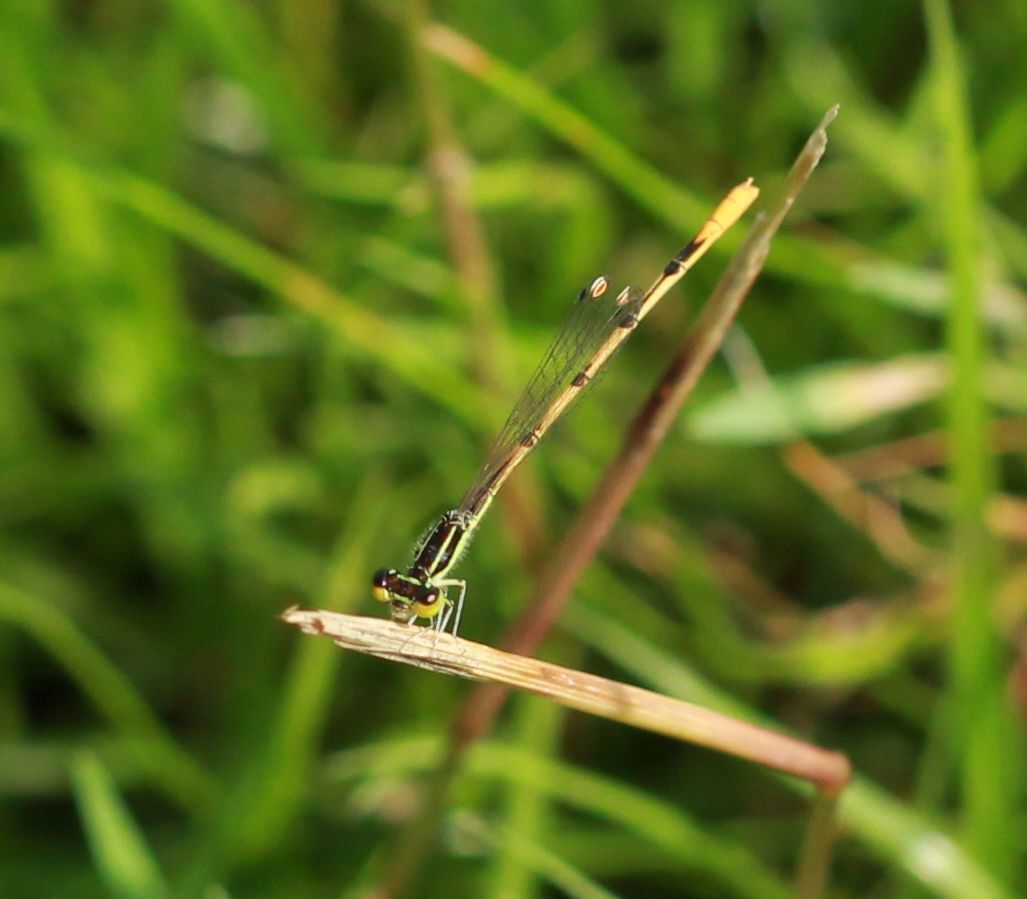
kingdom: Animalia
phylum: Arthropoda
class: Insecta
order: Odonata
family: Coenagrionidae
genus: Ischnura
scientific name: Ischnura hastata
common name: Citrine forktail
